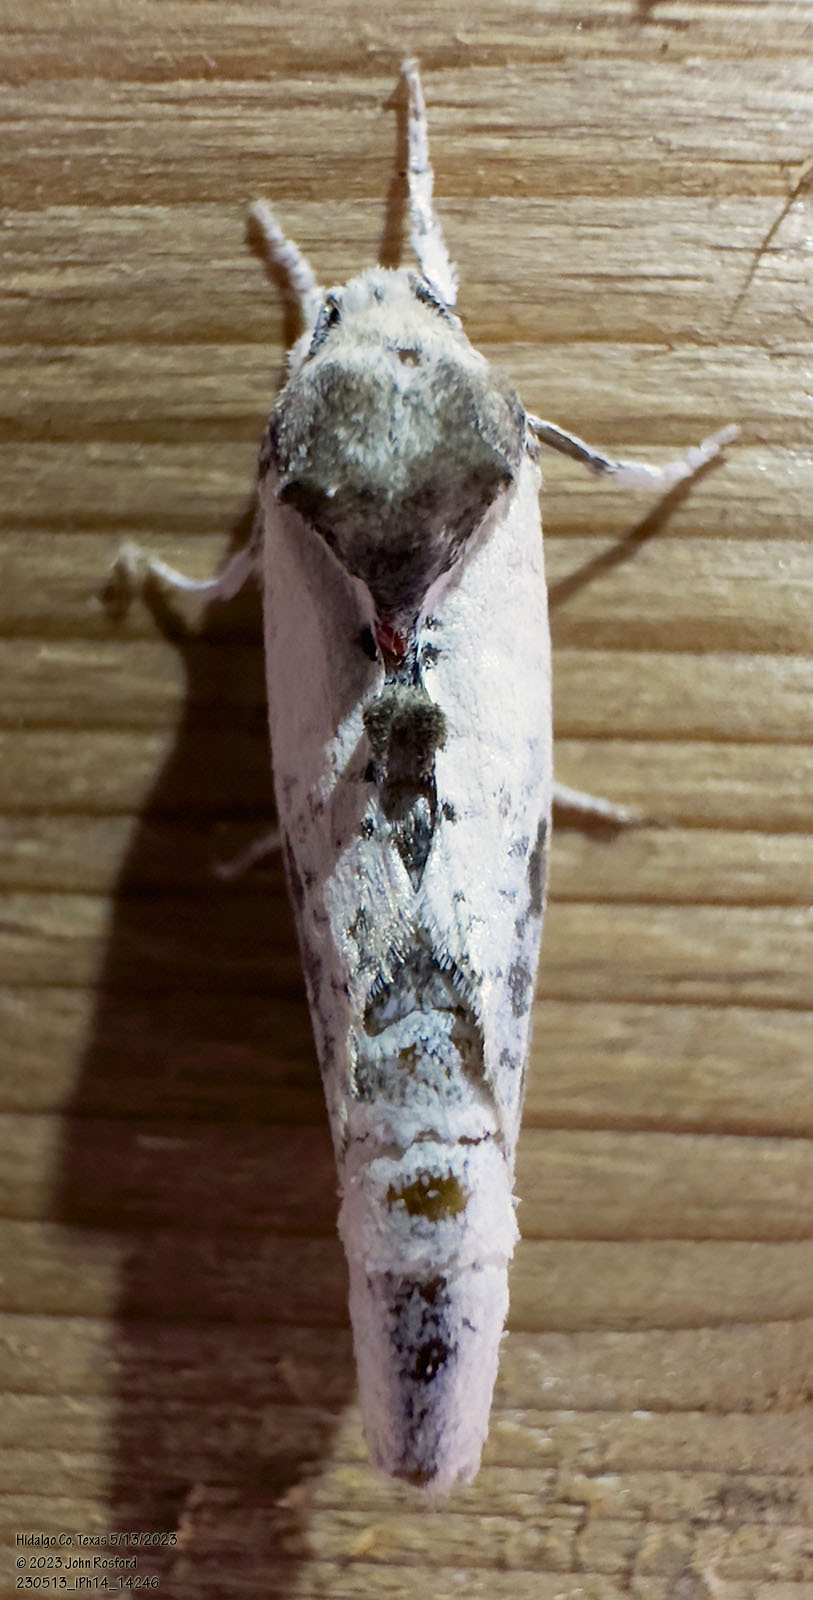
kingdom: Animalia
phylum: Arthropoda
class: Insecta
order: Lepidoptera
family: Cossidae
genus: Givira
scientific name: Givira theodori
